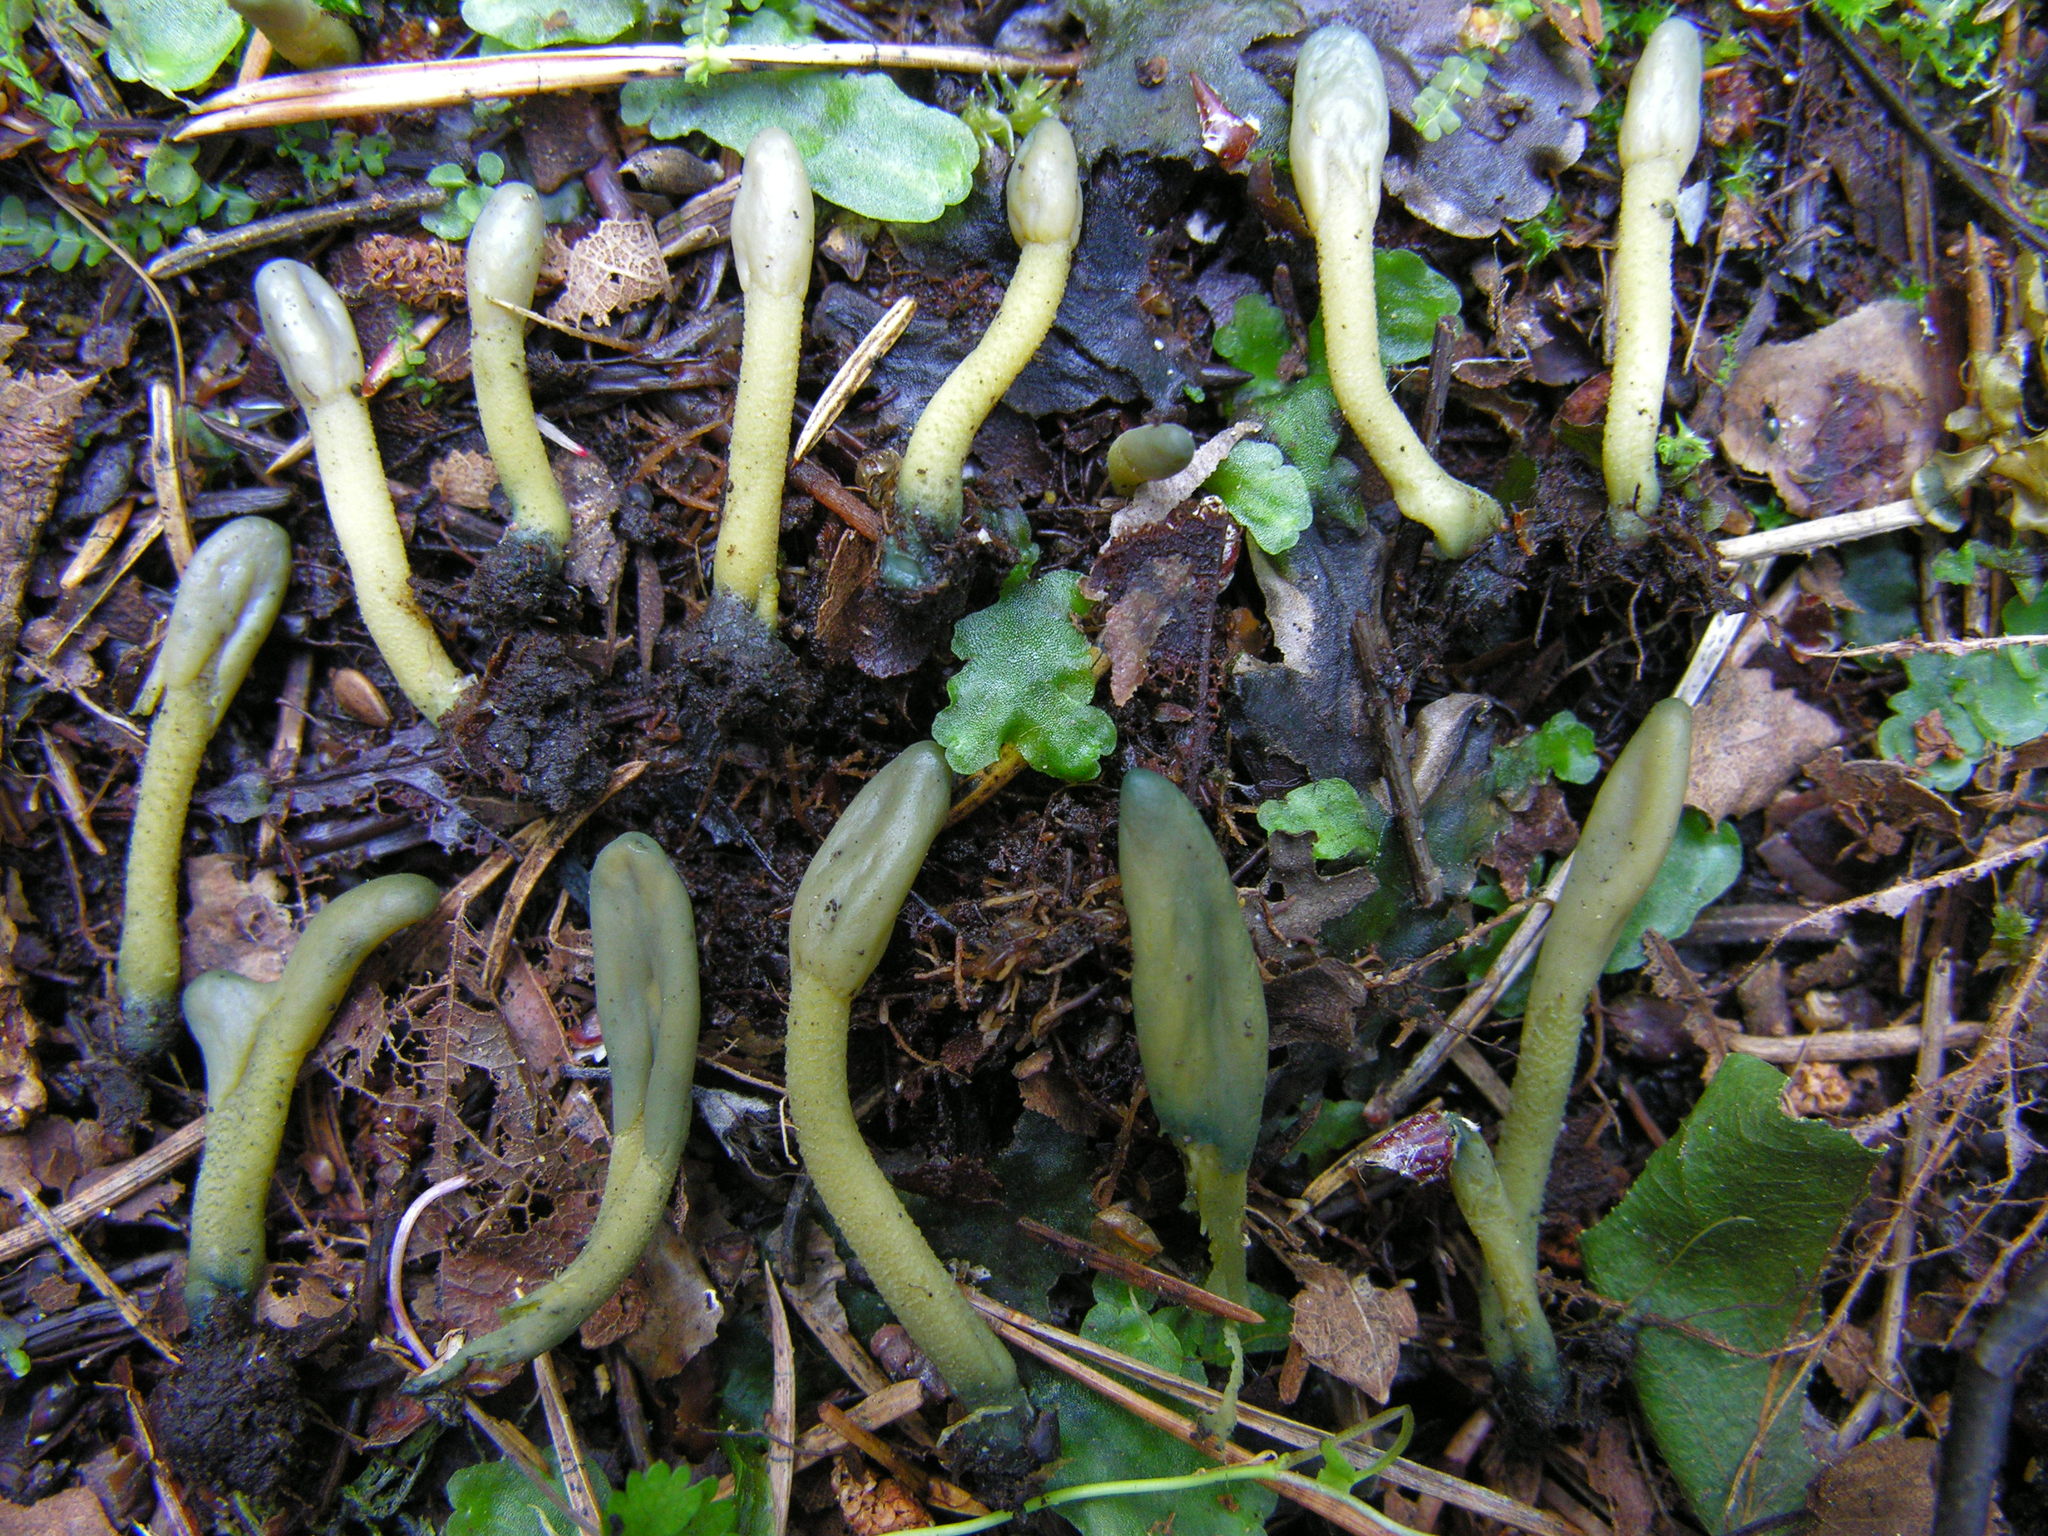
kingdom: Fungi
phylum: Ascomycota
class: Leotiomycetes
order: Leotiales
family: Leotiaceae
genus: Microglossum
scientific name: Microglossum viride
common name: Green earthtongue
